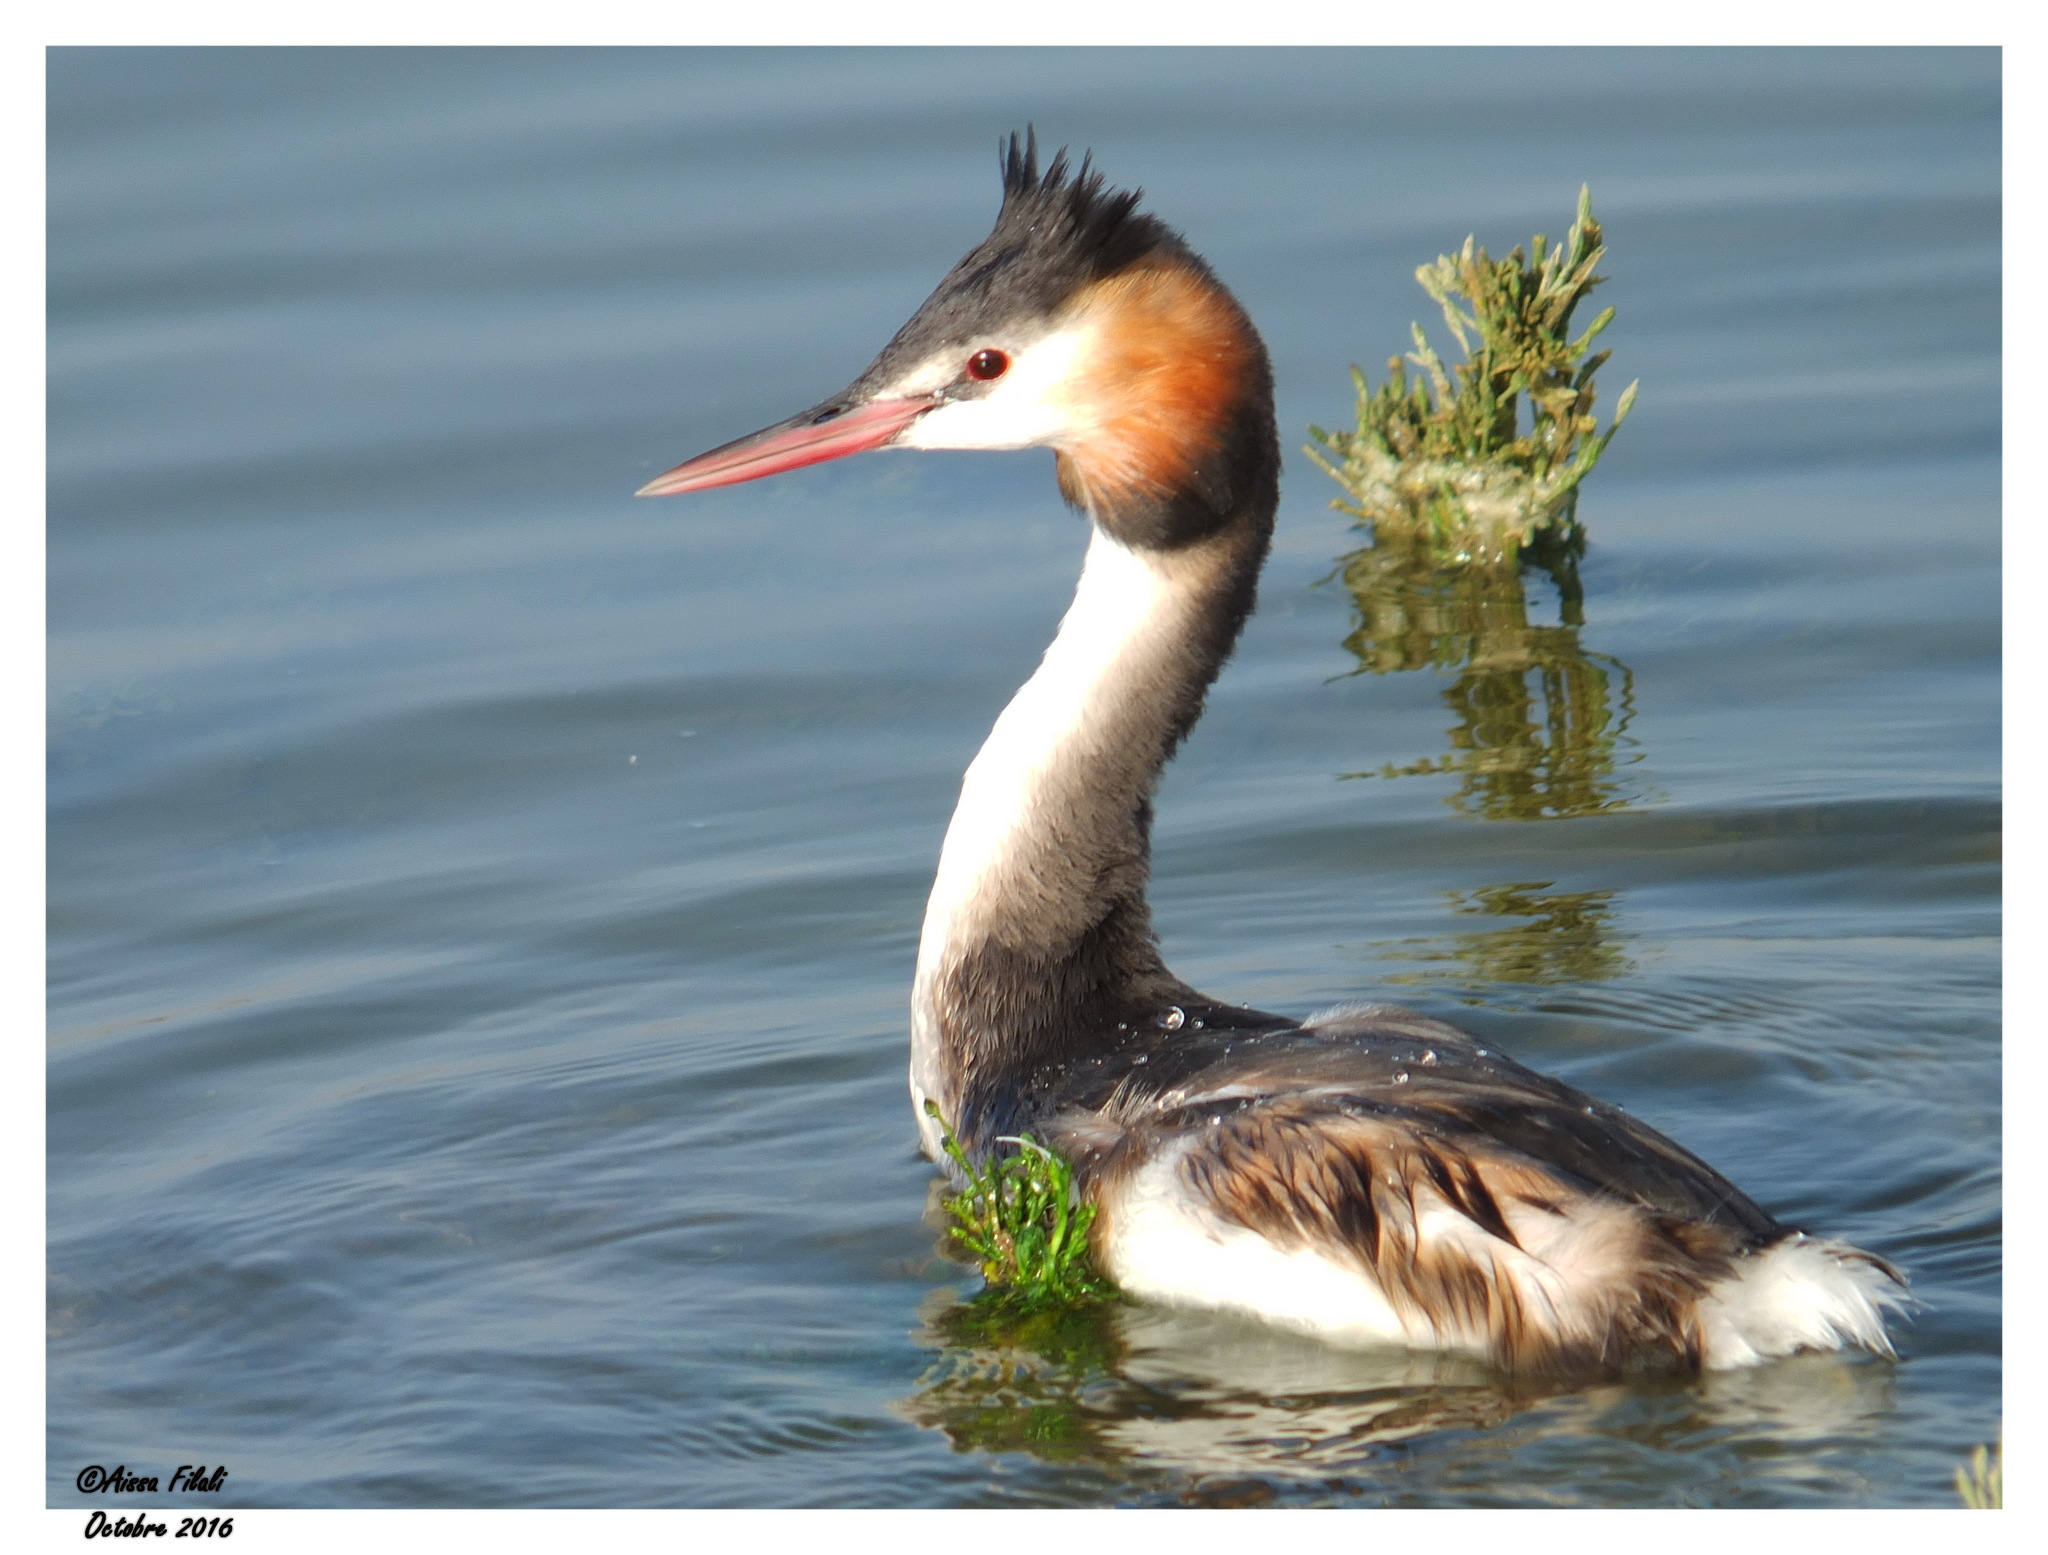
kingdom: Animalia
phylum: Chordata
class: Aves
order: Podicipediformes
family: Podicipedidae
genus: Podiceps
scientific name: Podiceps cristatus
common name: Great crested grebe
